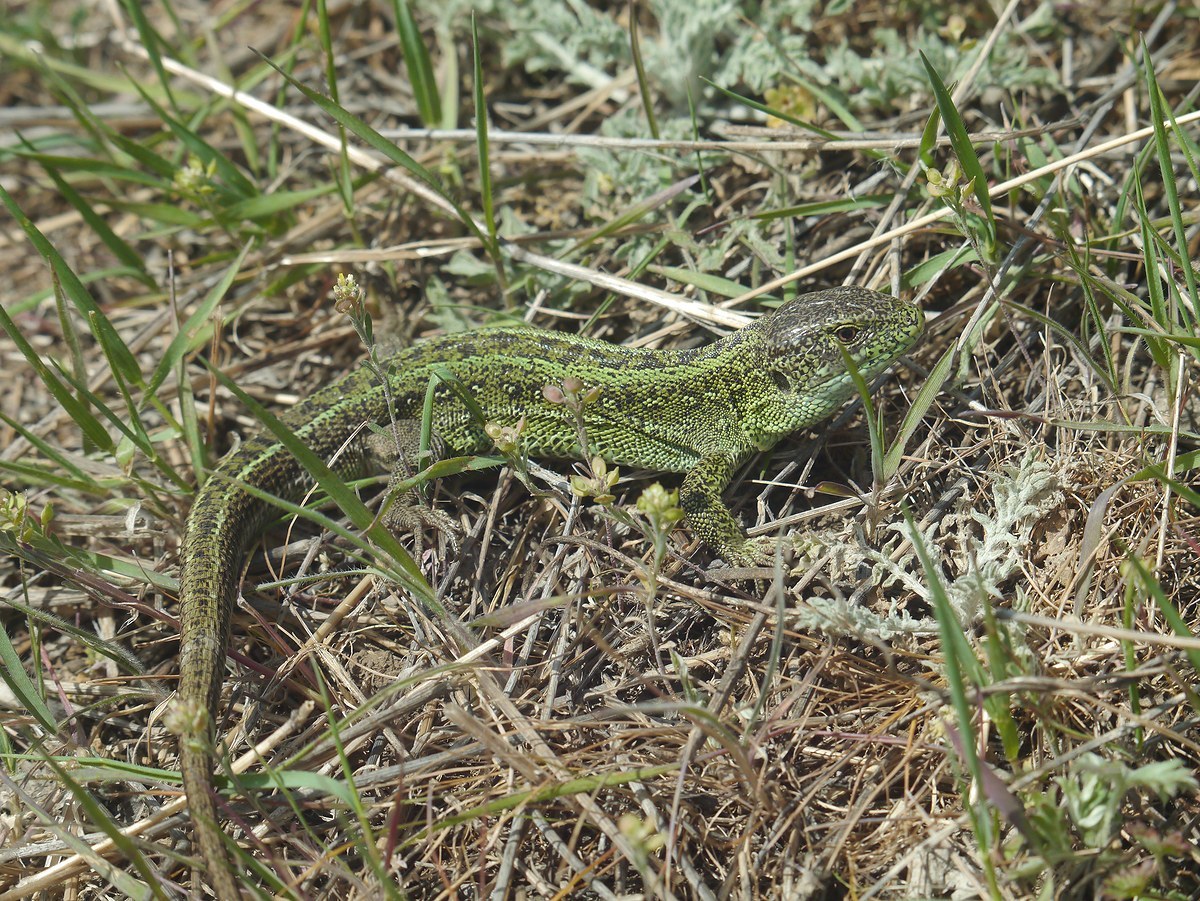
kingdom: Animalia
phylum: Chordata
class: Squamata
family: Lacertidae
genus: Lacerta
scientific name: Lacerta agilis
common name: Sand lizard
